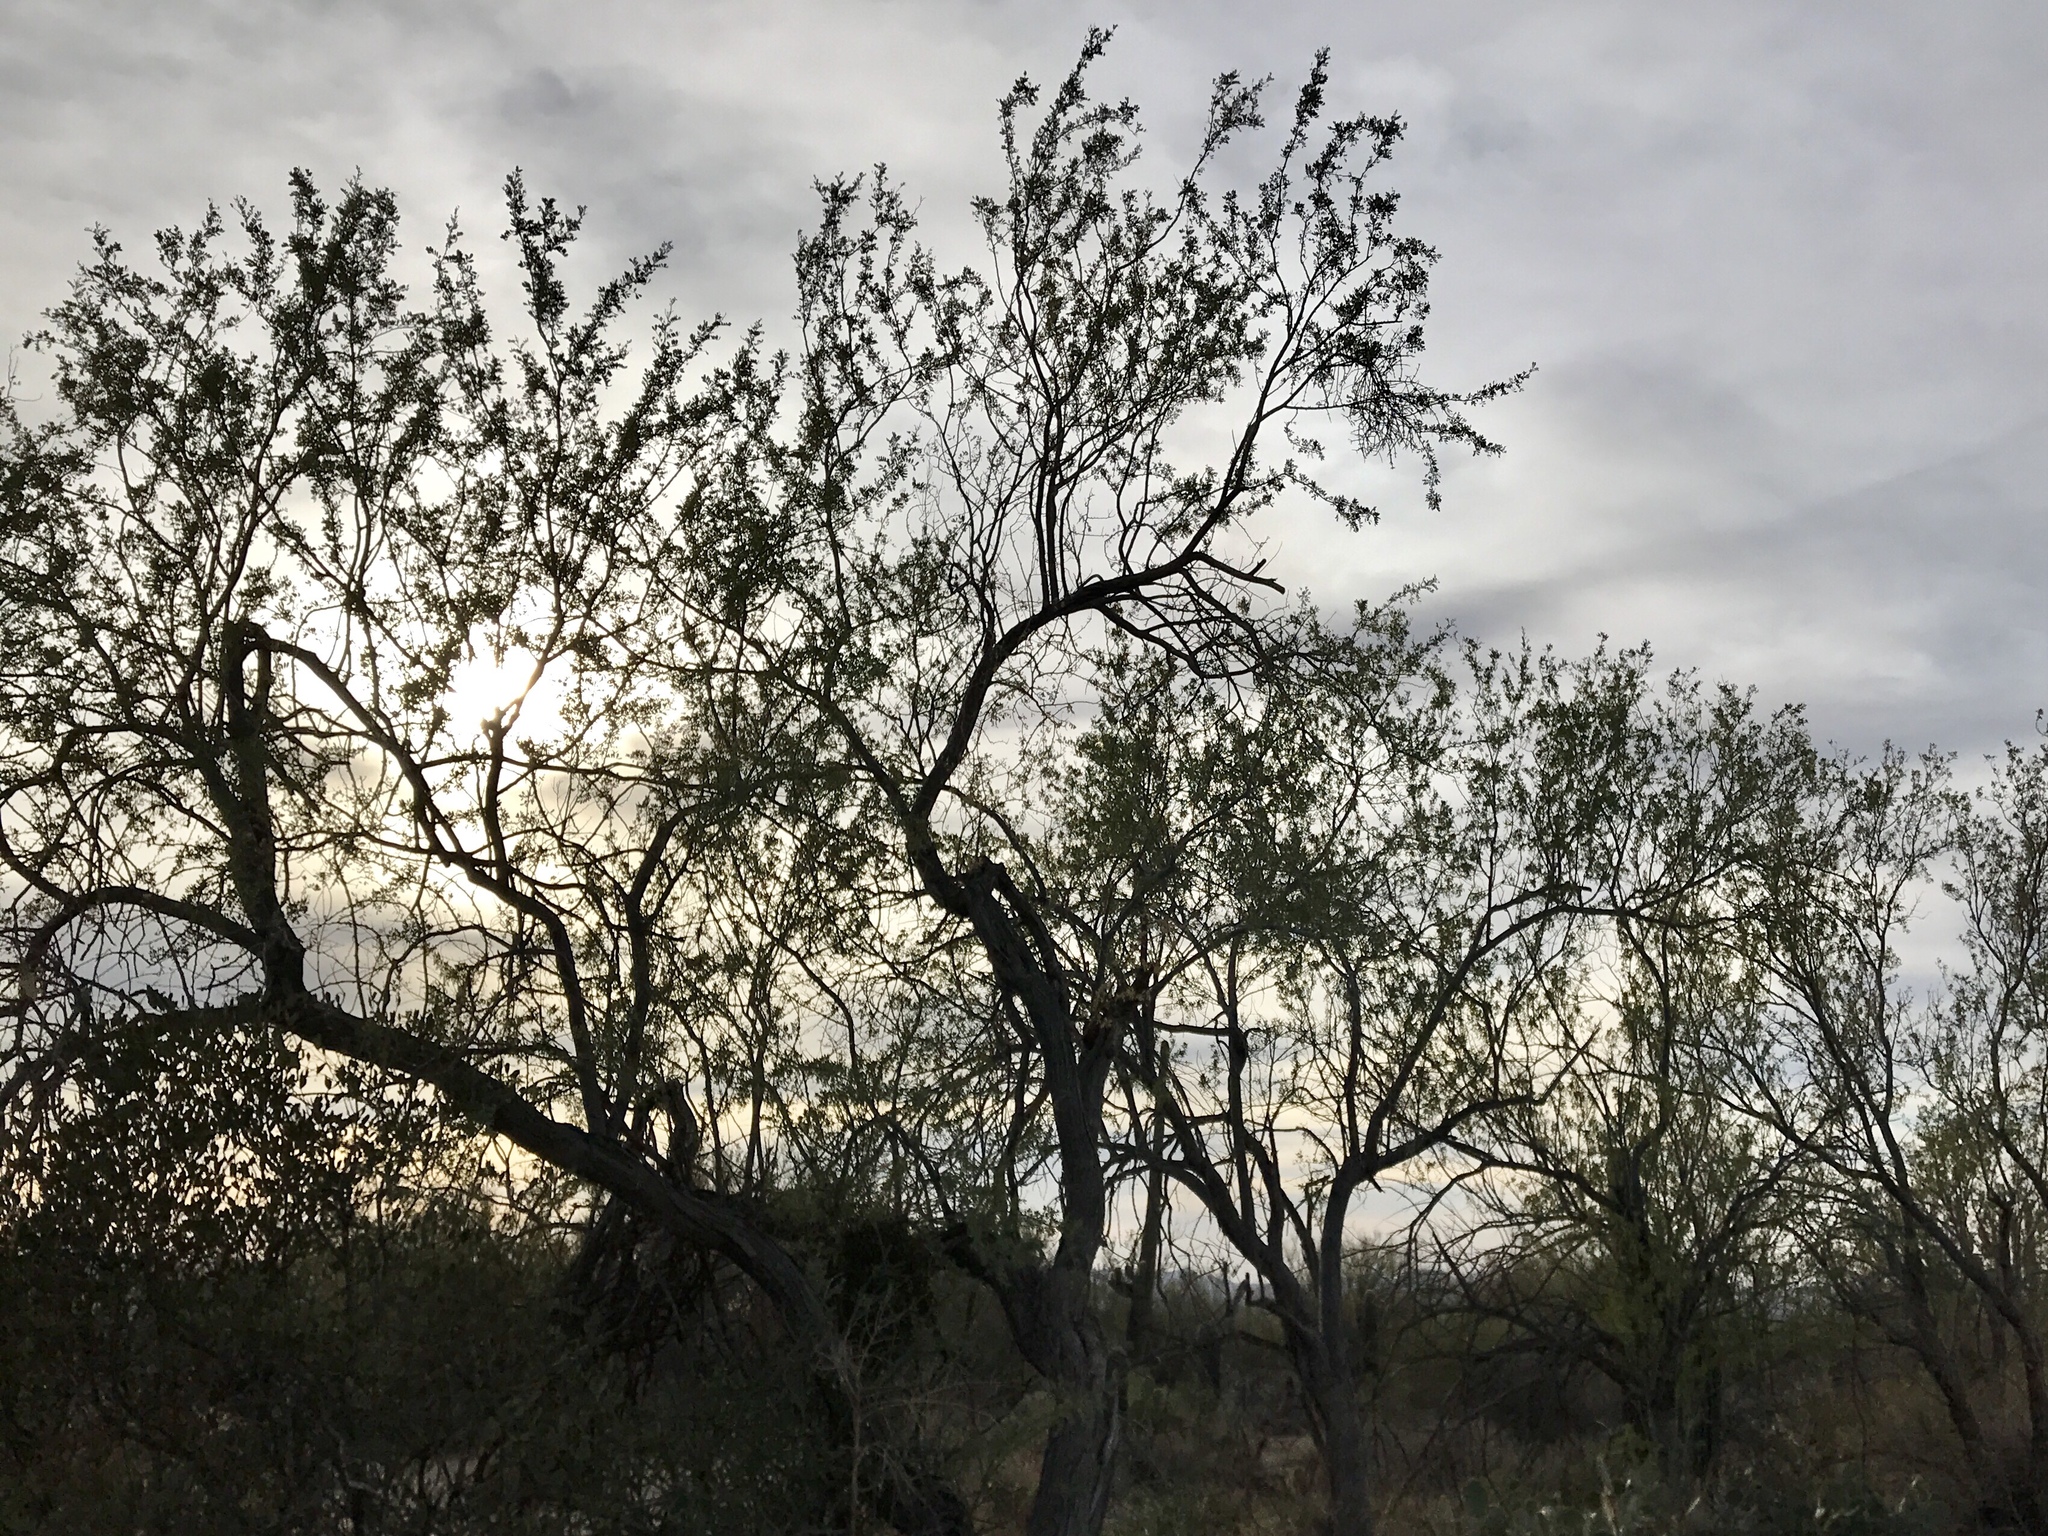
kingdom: Plantae
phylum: Tracheophyta
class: Magnoliopsida
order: Fabales
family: Fabaceae
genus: Olneya
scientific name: Olneya tesota
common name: Desert ironwood
